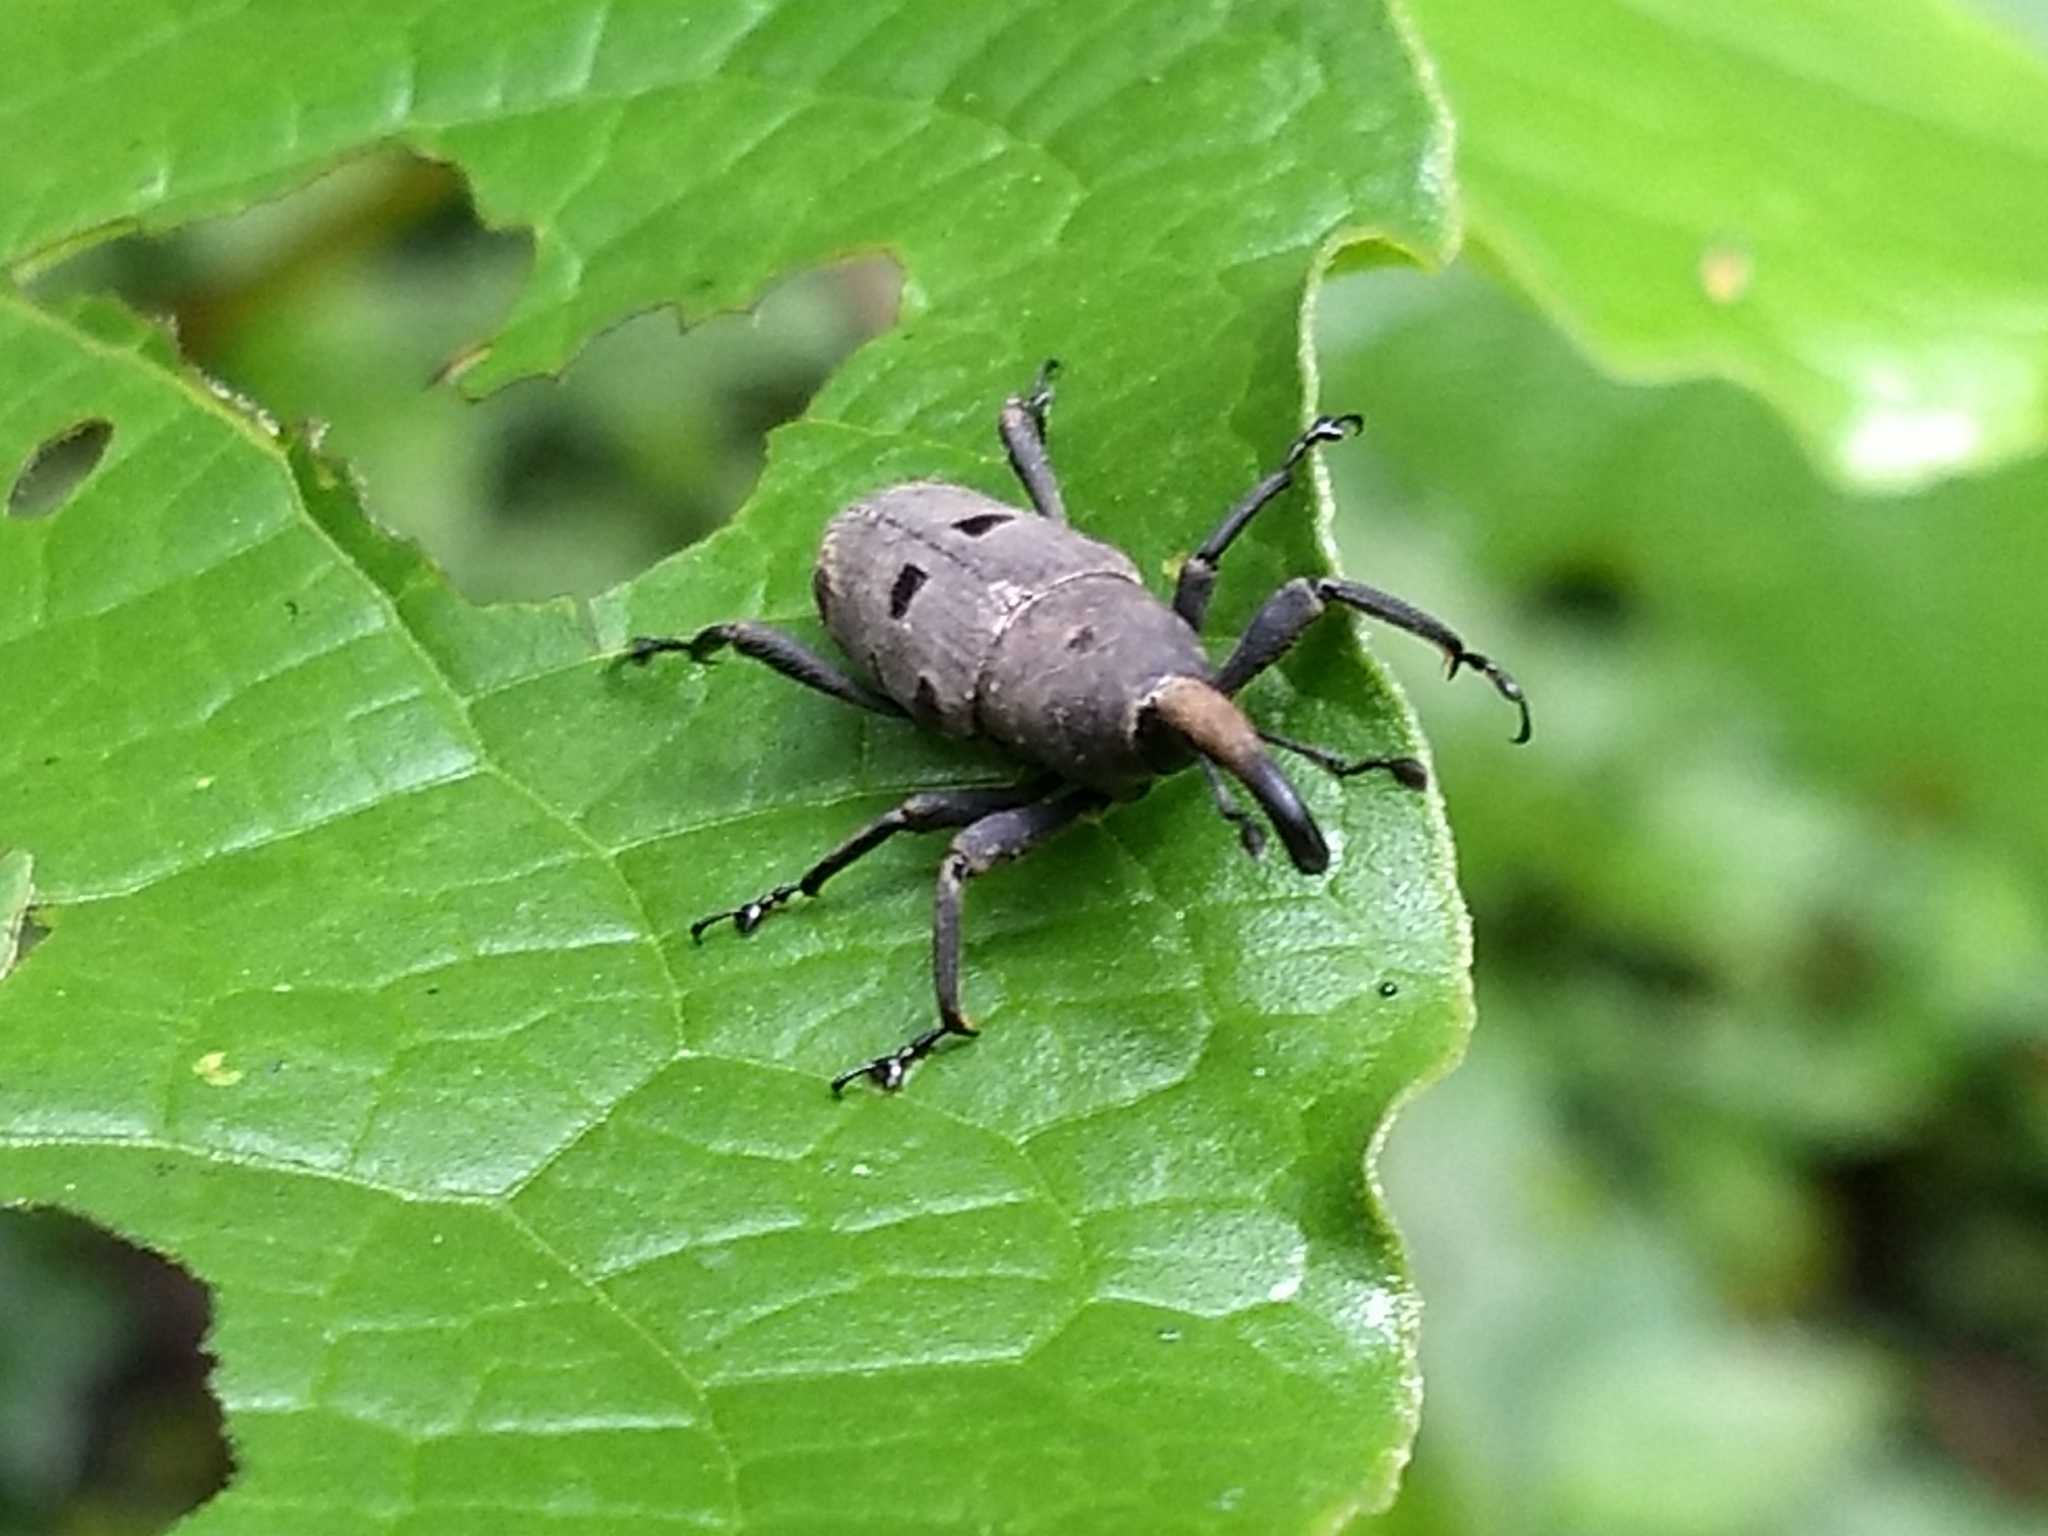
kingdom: Animalia
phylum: Arthropoda
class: Insecta
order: Coleoptera
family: Dryophthoridae
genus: Rhodobaenus
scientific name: Rhodobaenus stigmaticus
